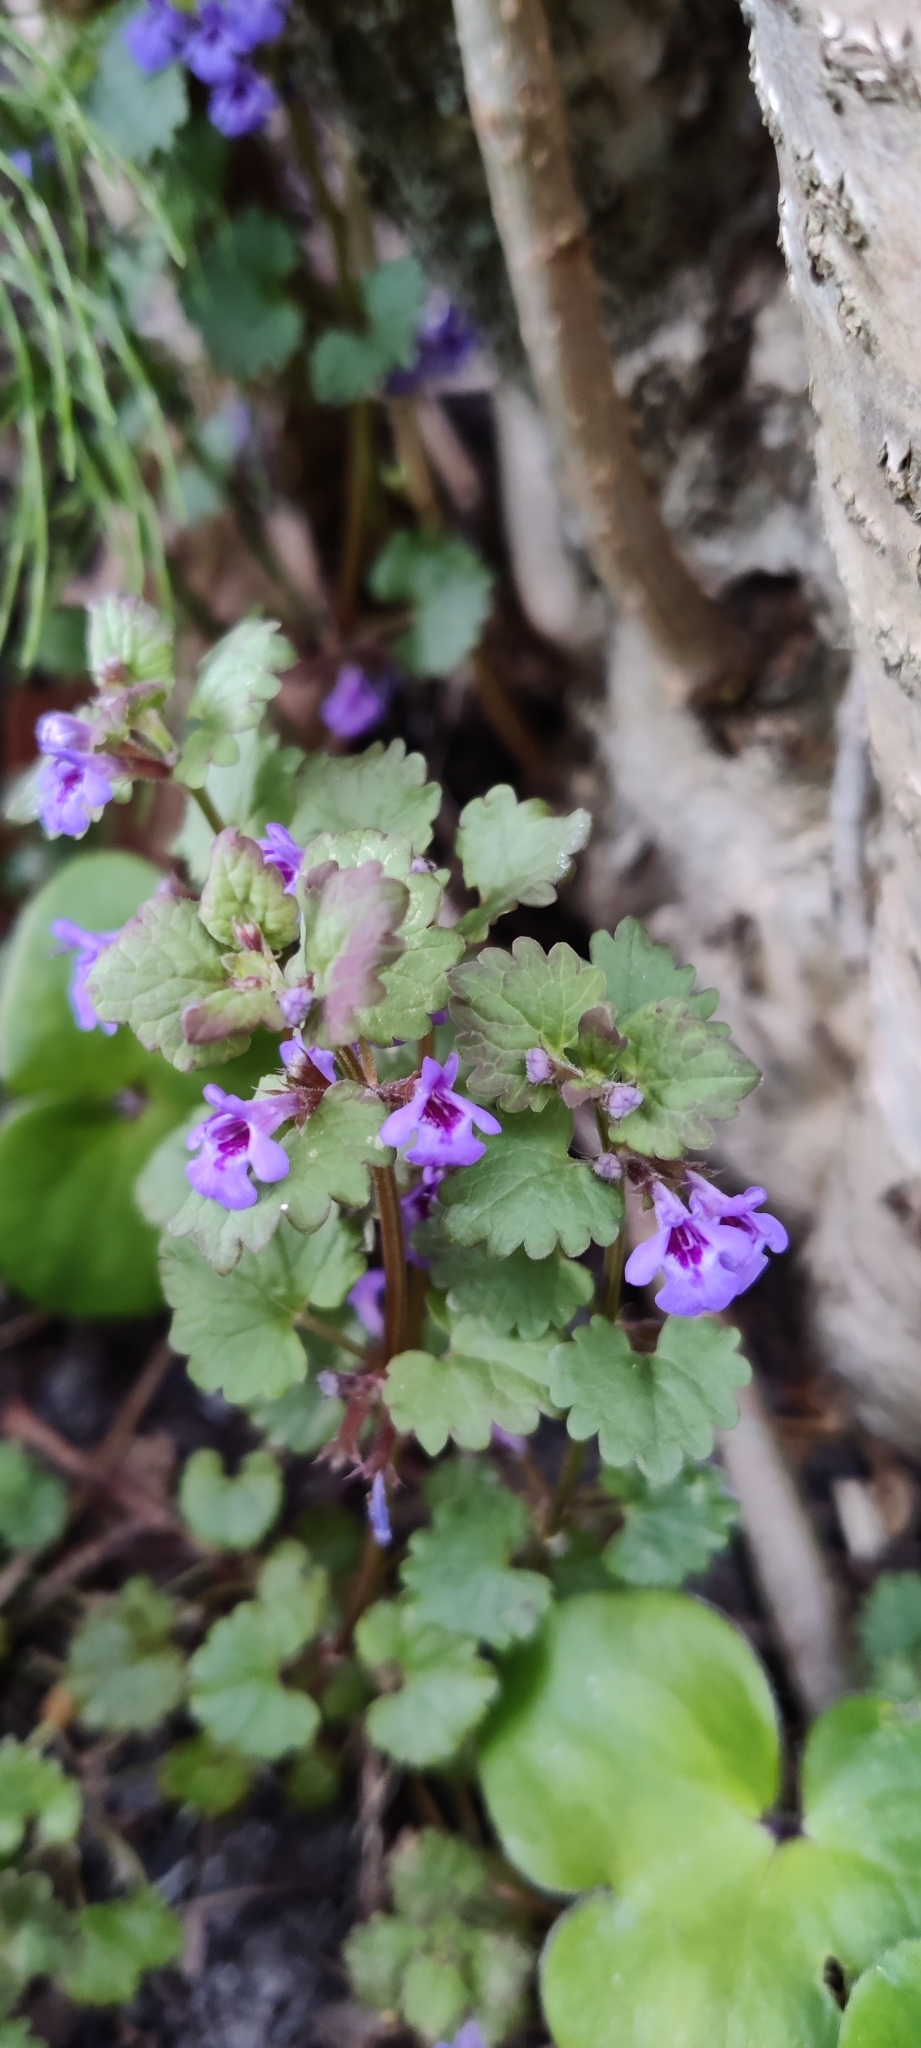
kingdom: Plantae
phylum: Tracheophyta
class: Magnoliopsida
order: Lamiales
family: Lamiaceae
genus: Glechoma
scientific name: Glechoma hederacea
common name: Ground ivy
